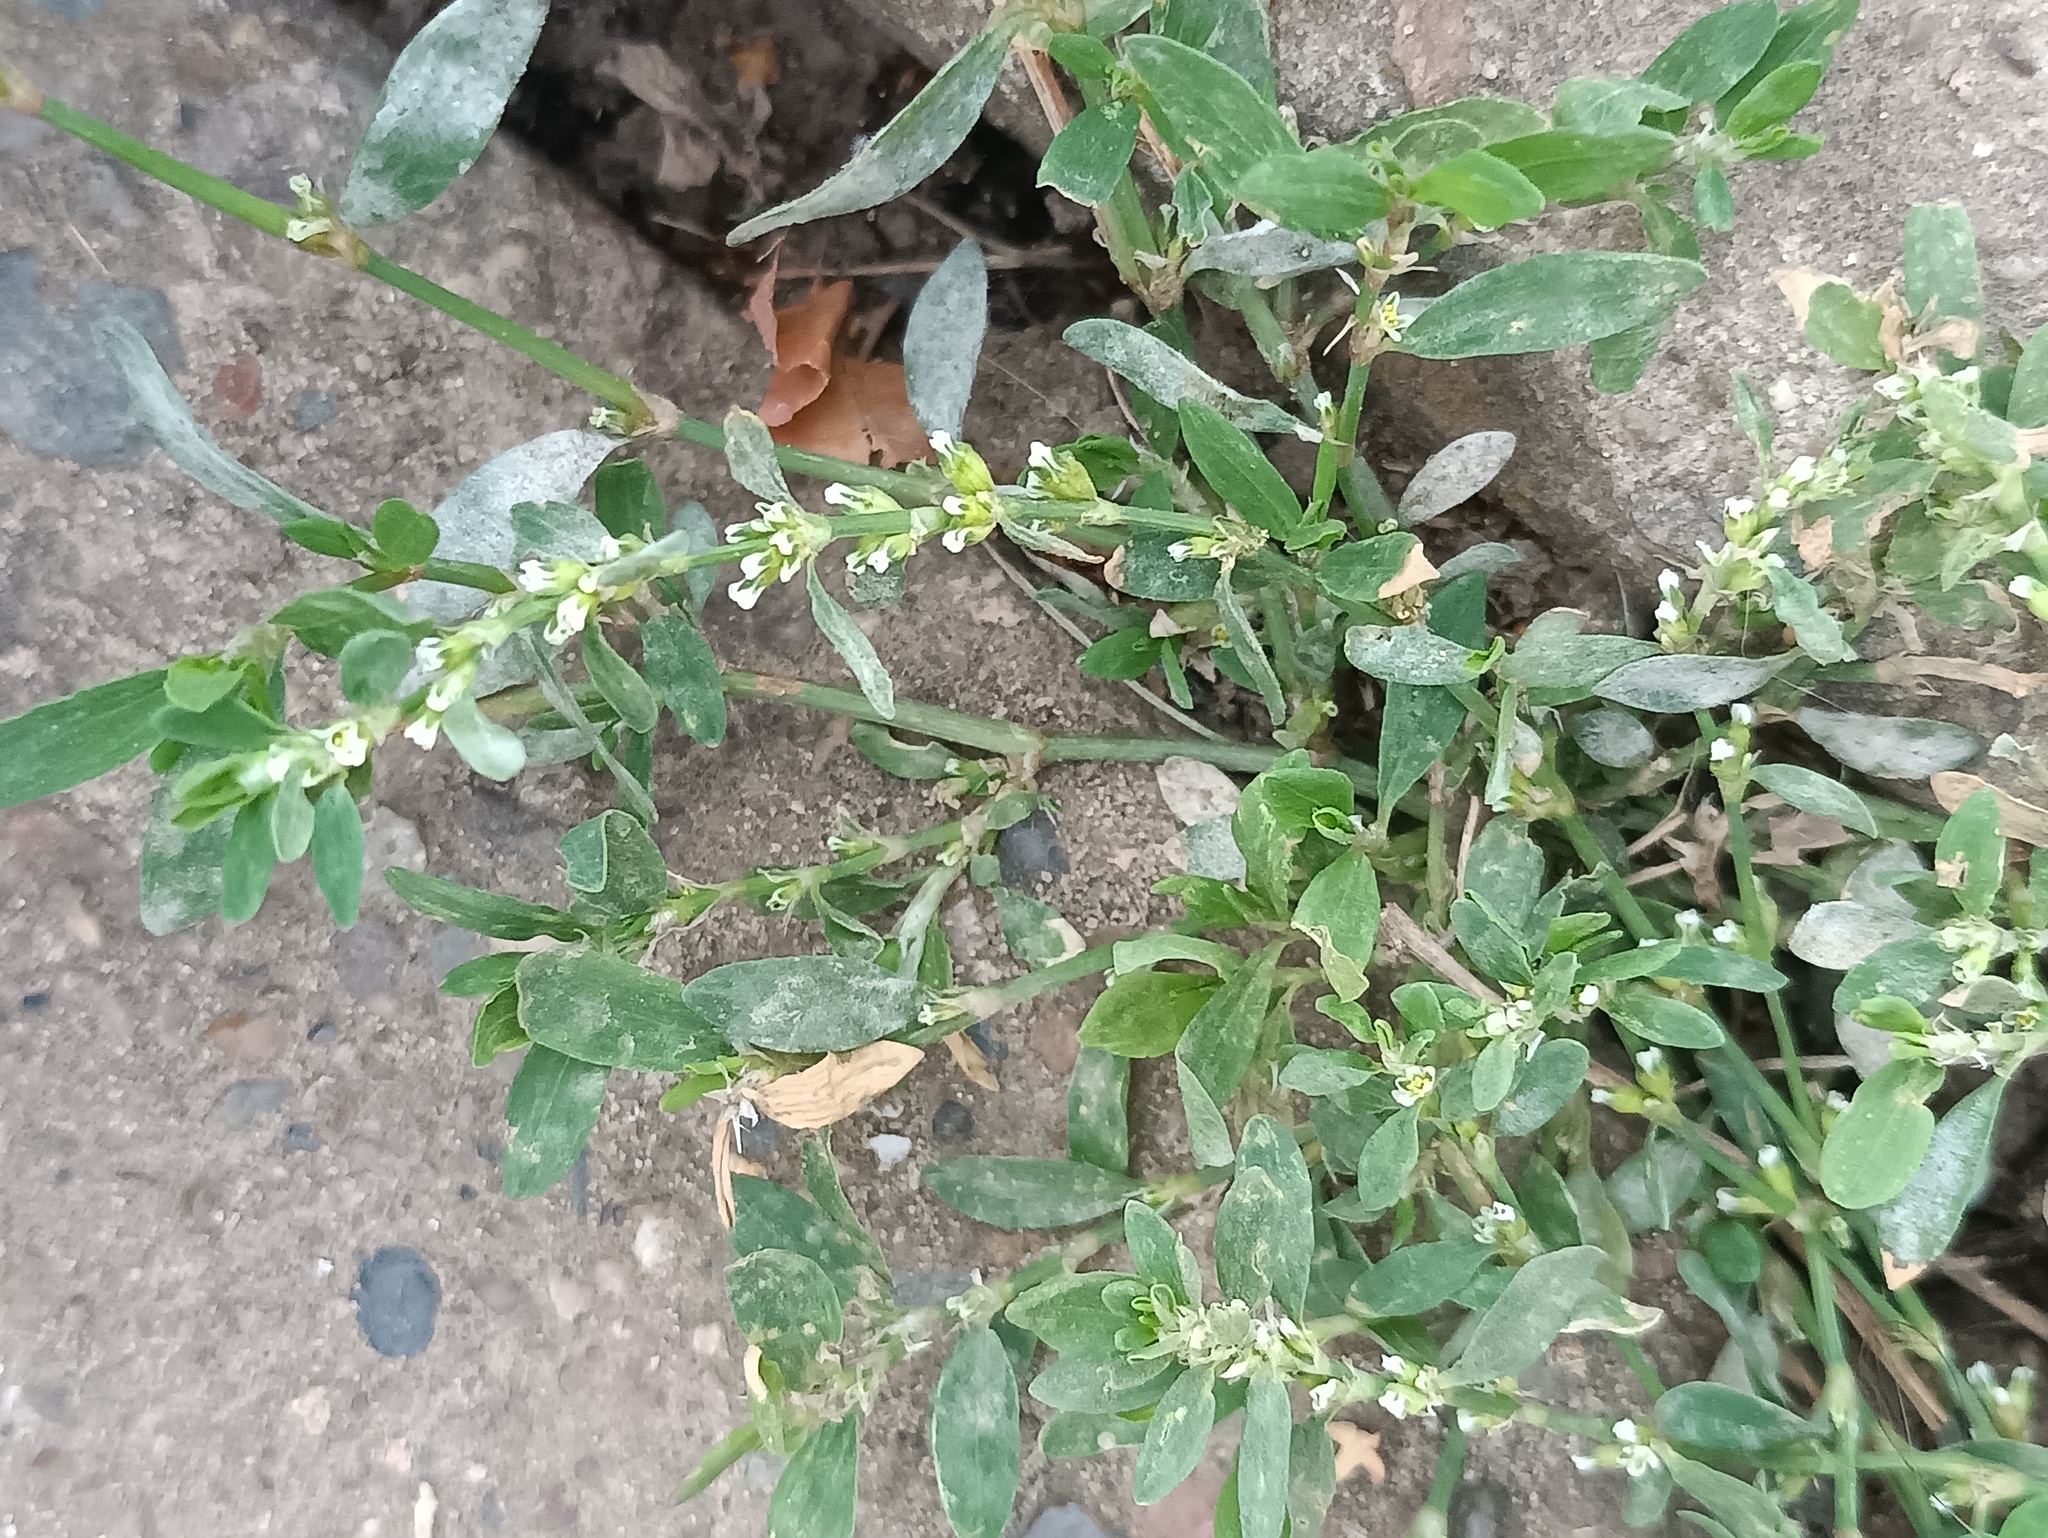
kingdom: Plantae
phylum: Tracheophyta
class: Magnoliopsida
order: Caryophyllales
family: Polygonaceae
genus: Polygonum
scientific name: Polygonum
